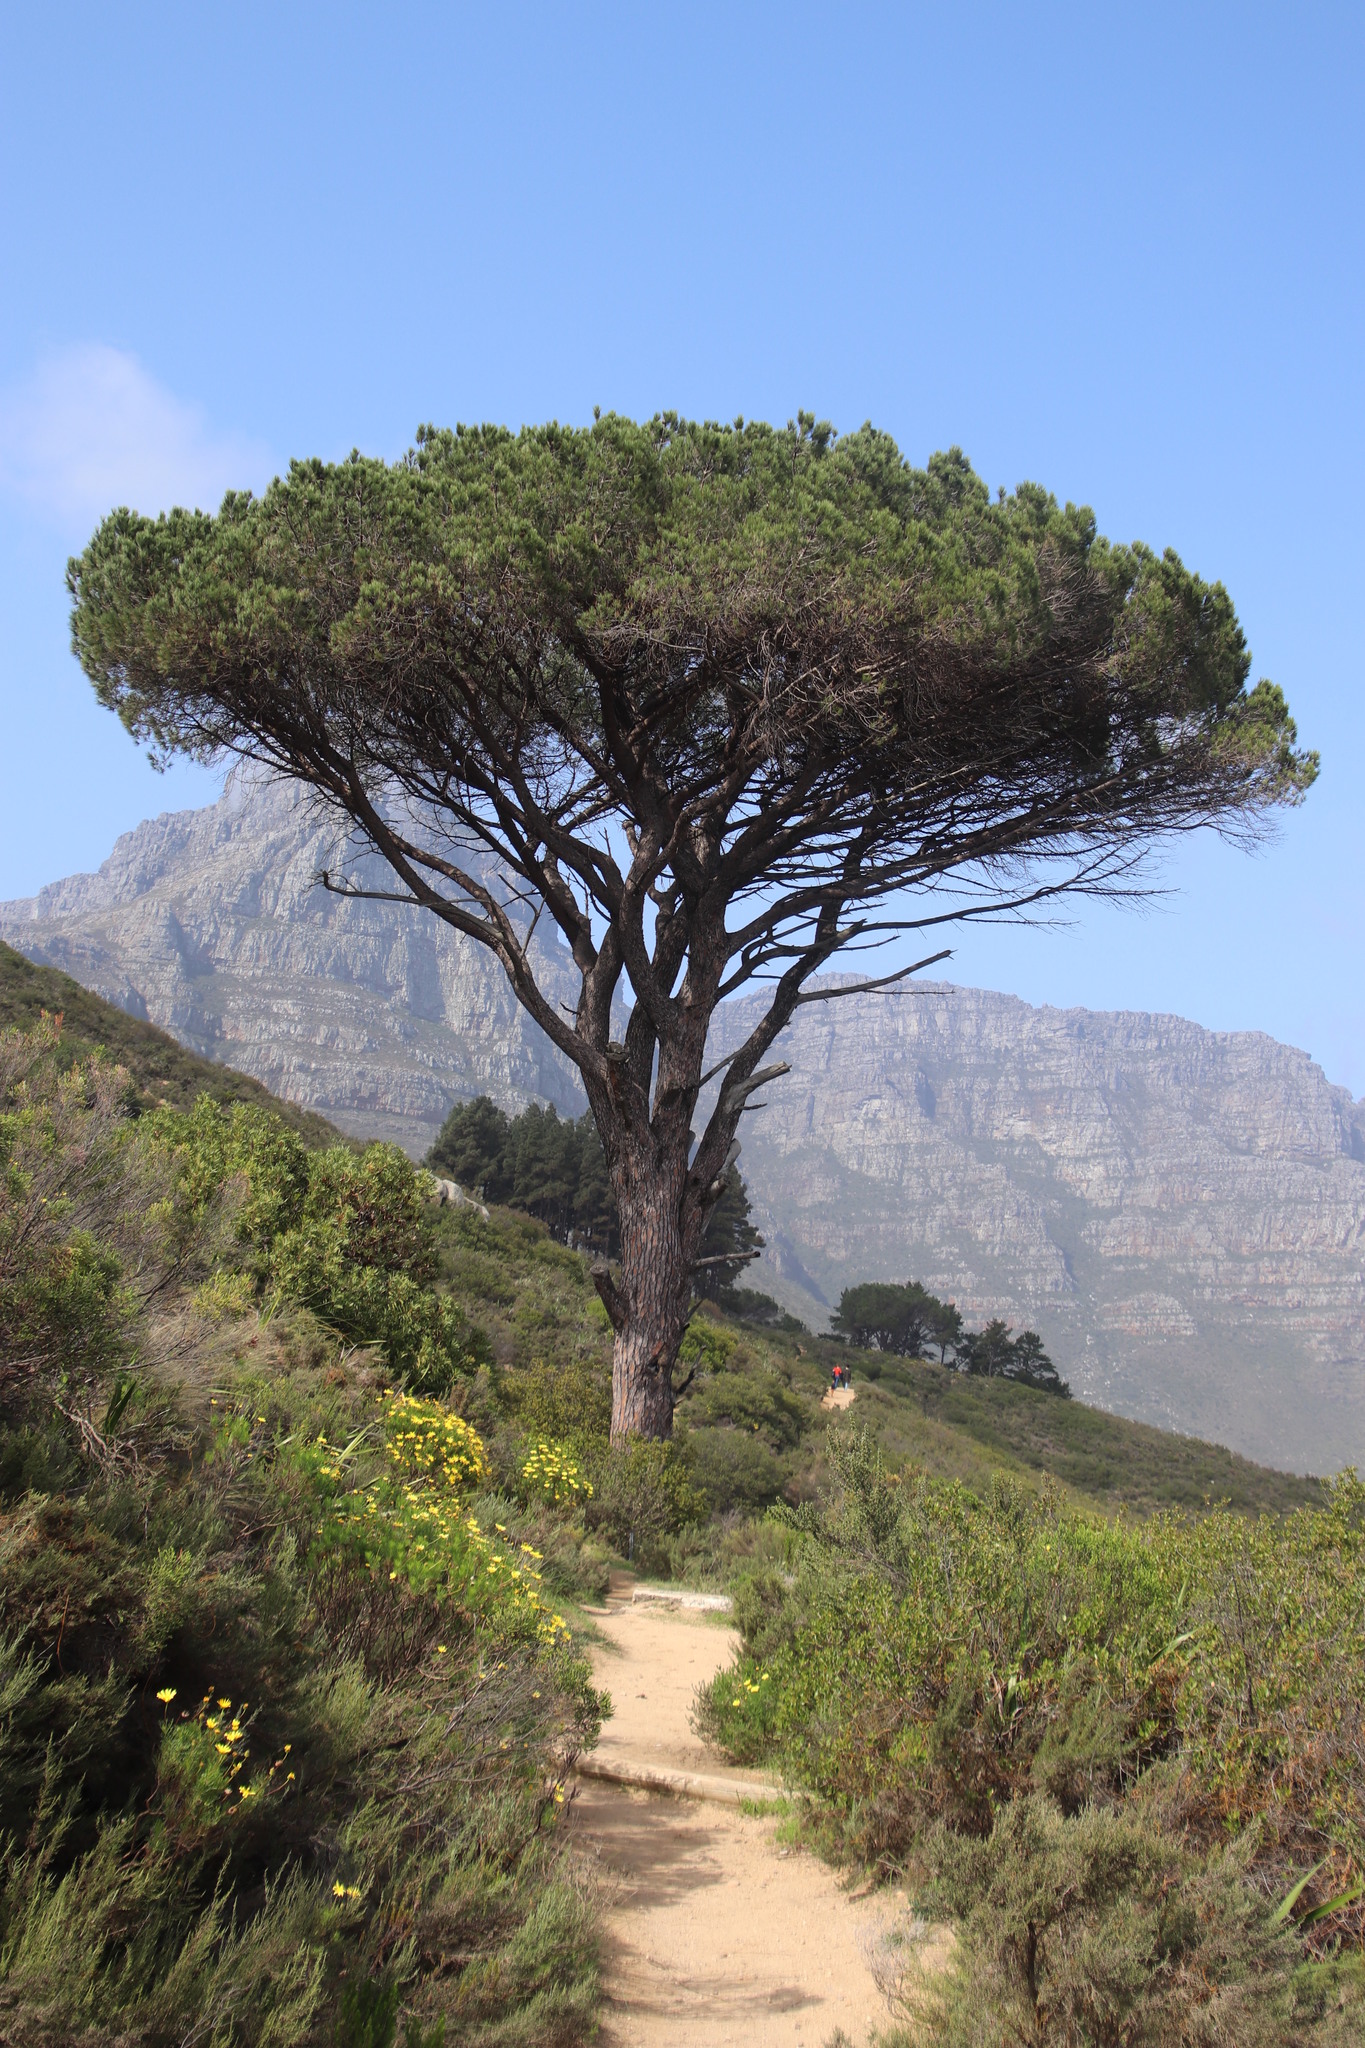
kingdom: Plantae
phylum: Tracheophyta
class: Pinopsida
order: Pinales
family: Pinaceae
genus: Pinus
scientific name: Pinus pinea
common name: Italian stone pine
